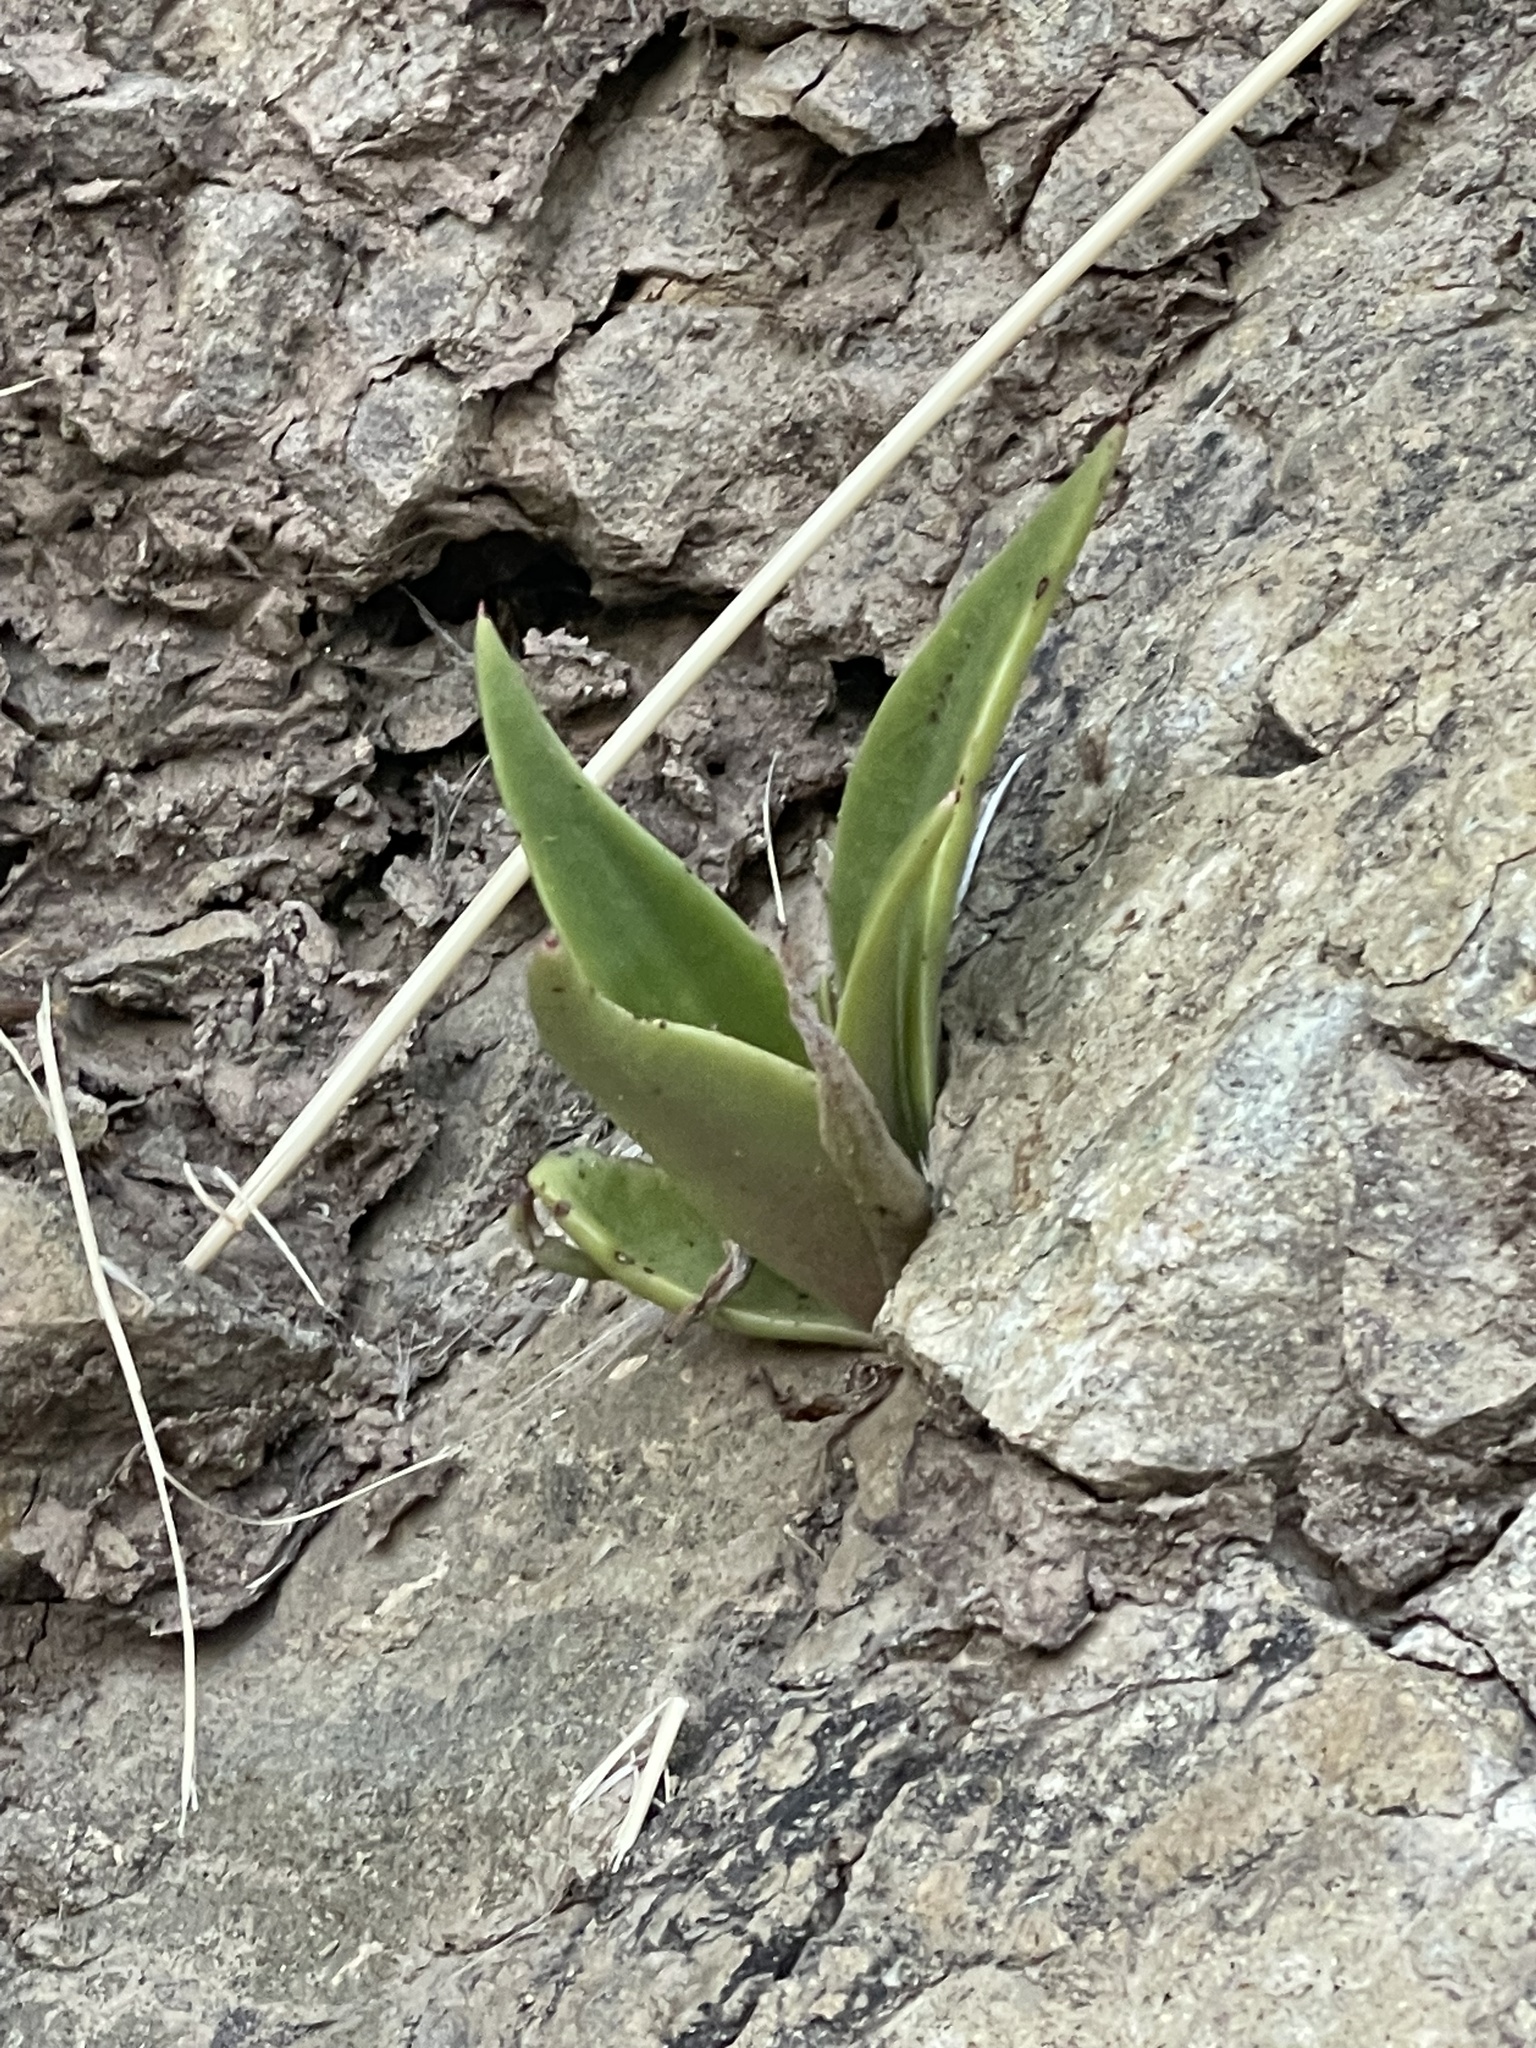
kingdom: Plantae
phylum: Tracheophyta
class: Magnoliopsida
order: Saxifragales
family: Crassulaceae
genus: Dudleya
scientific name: Dudleya lanceolata
